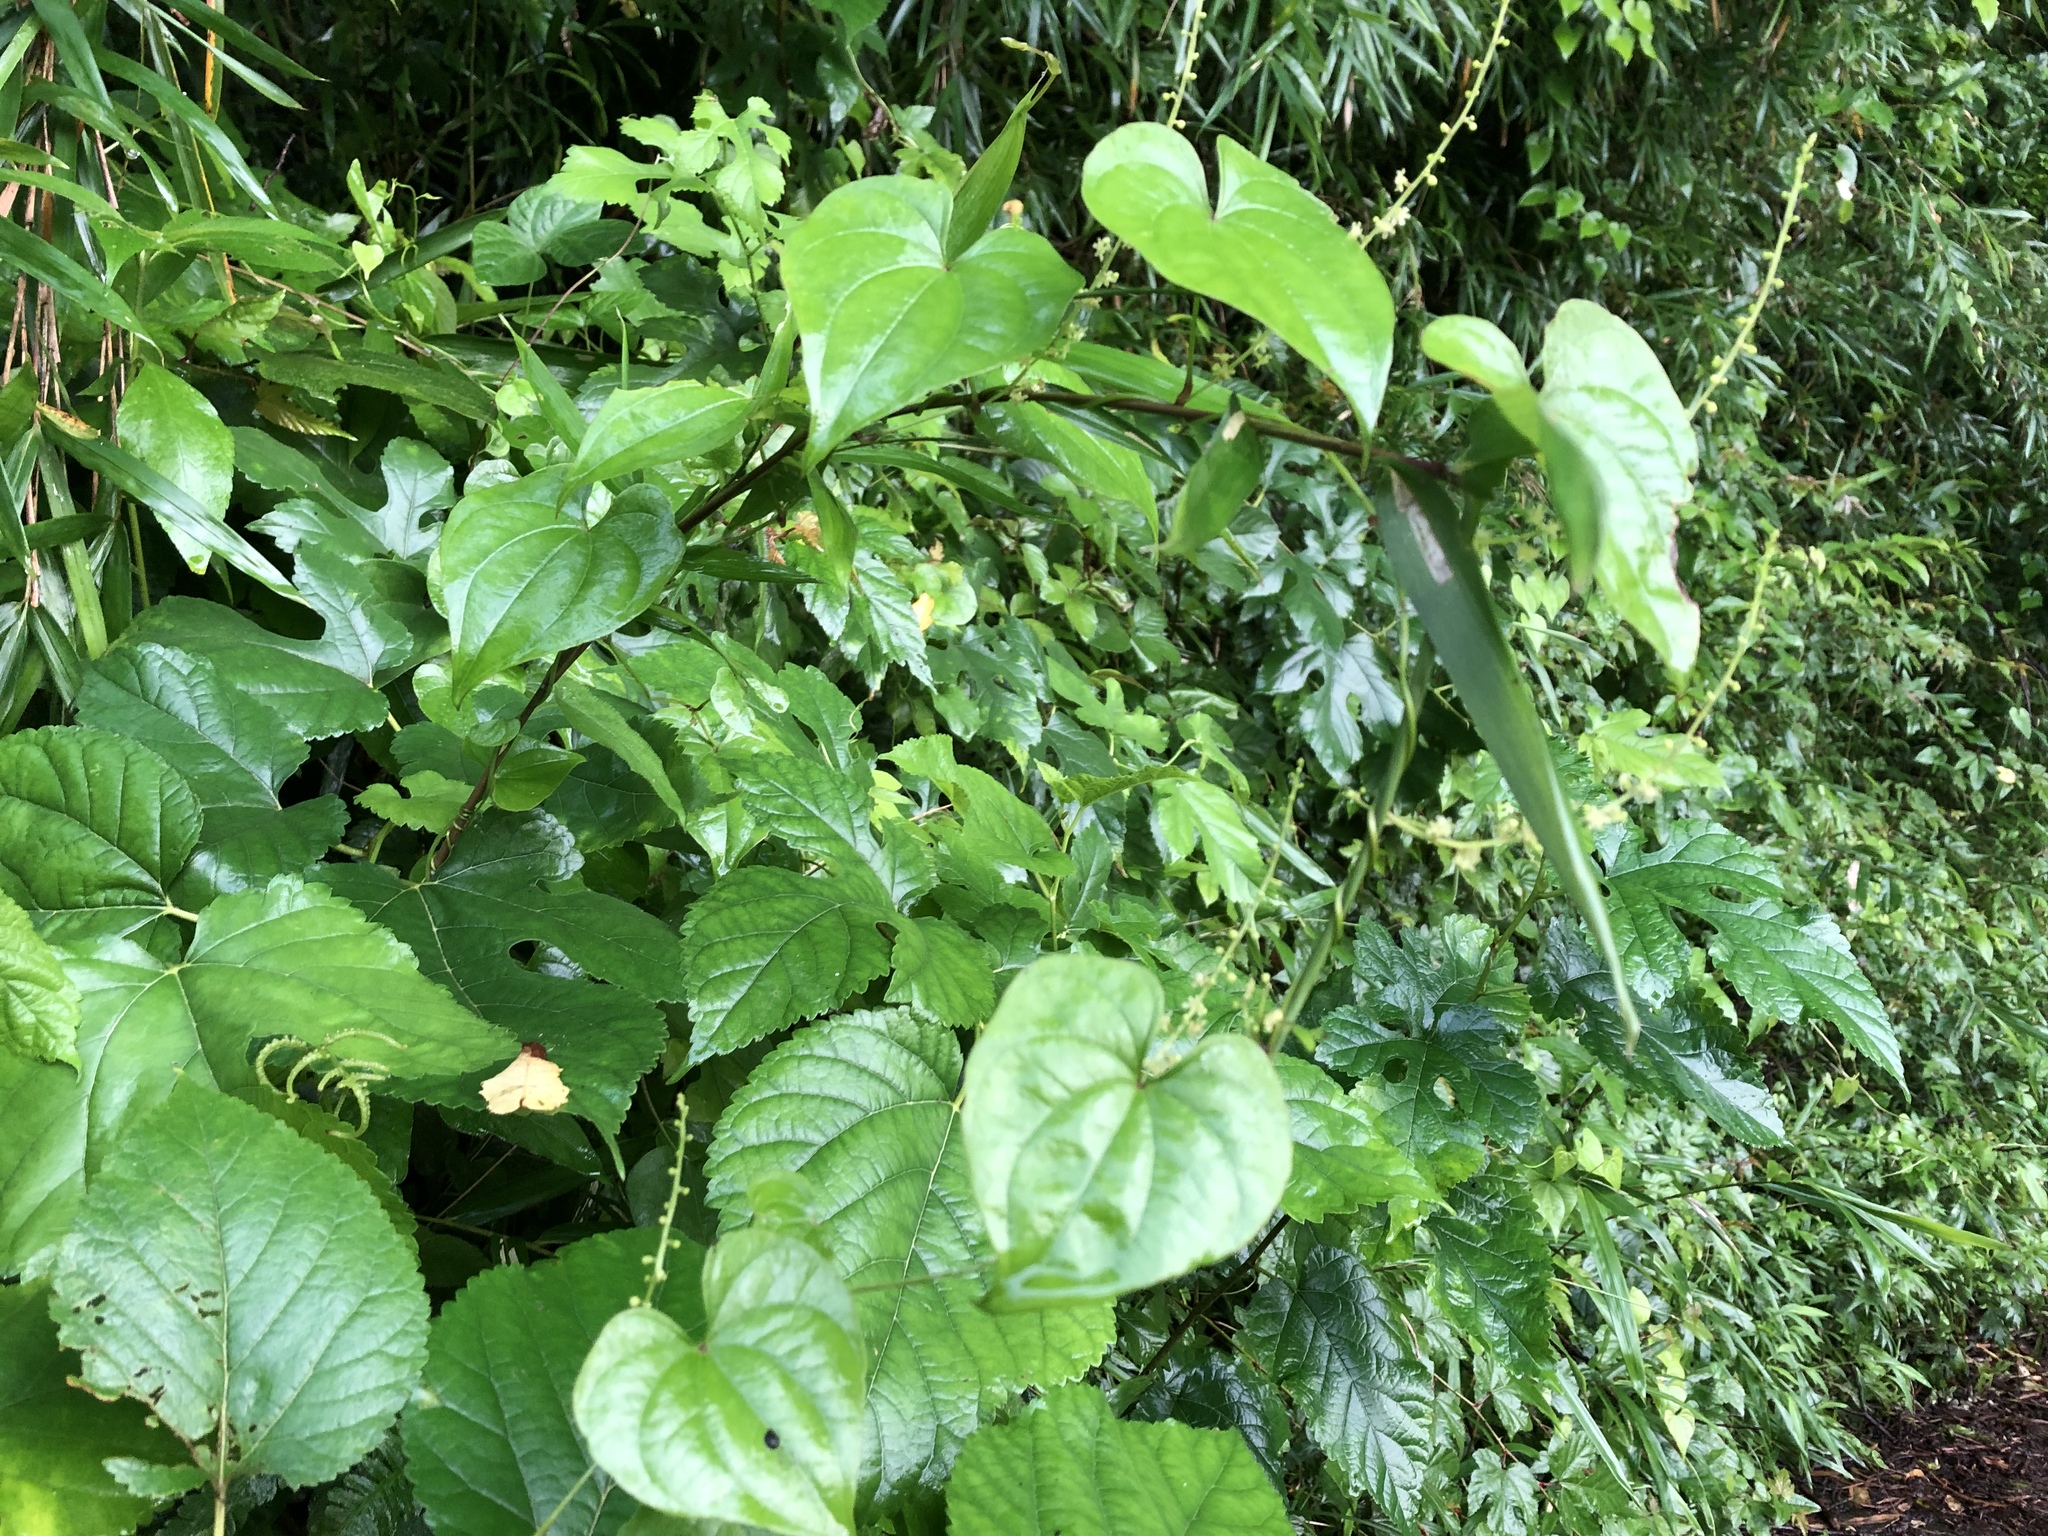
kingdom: Plantae
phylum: Tracheophyta
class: Liliopsida
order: Dioscoreales
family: Dioscoreaceae
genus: Dioscorea
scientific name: Dioscorea tokoro
